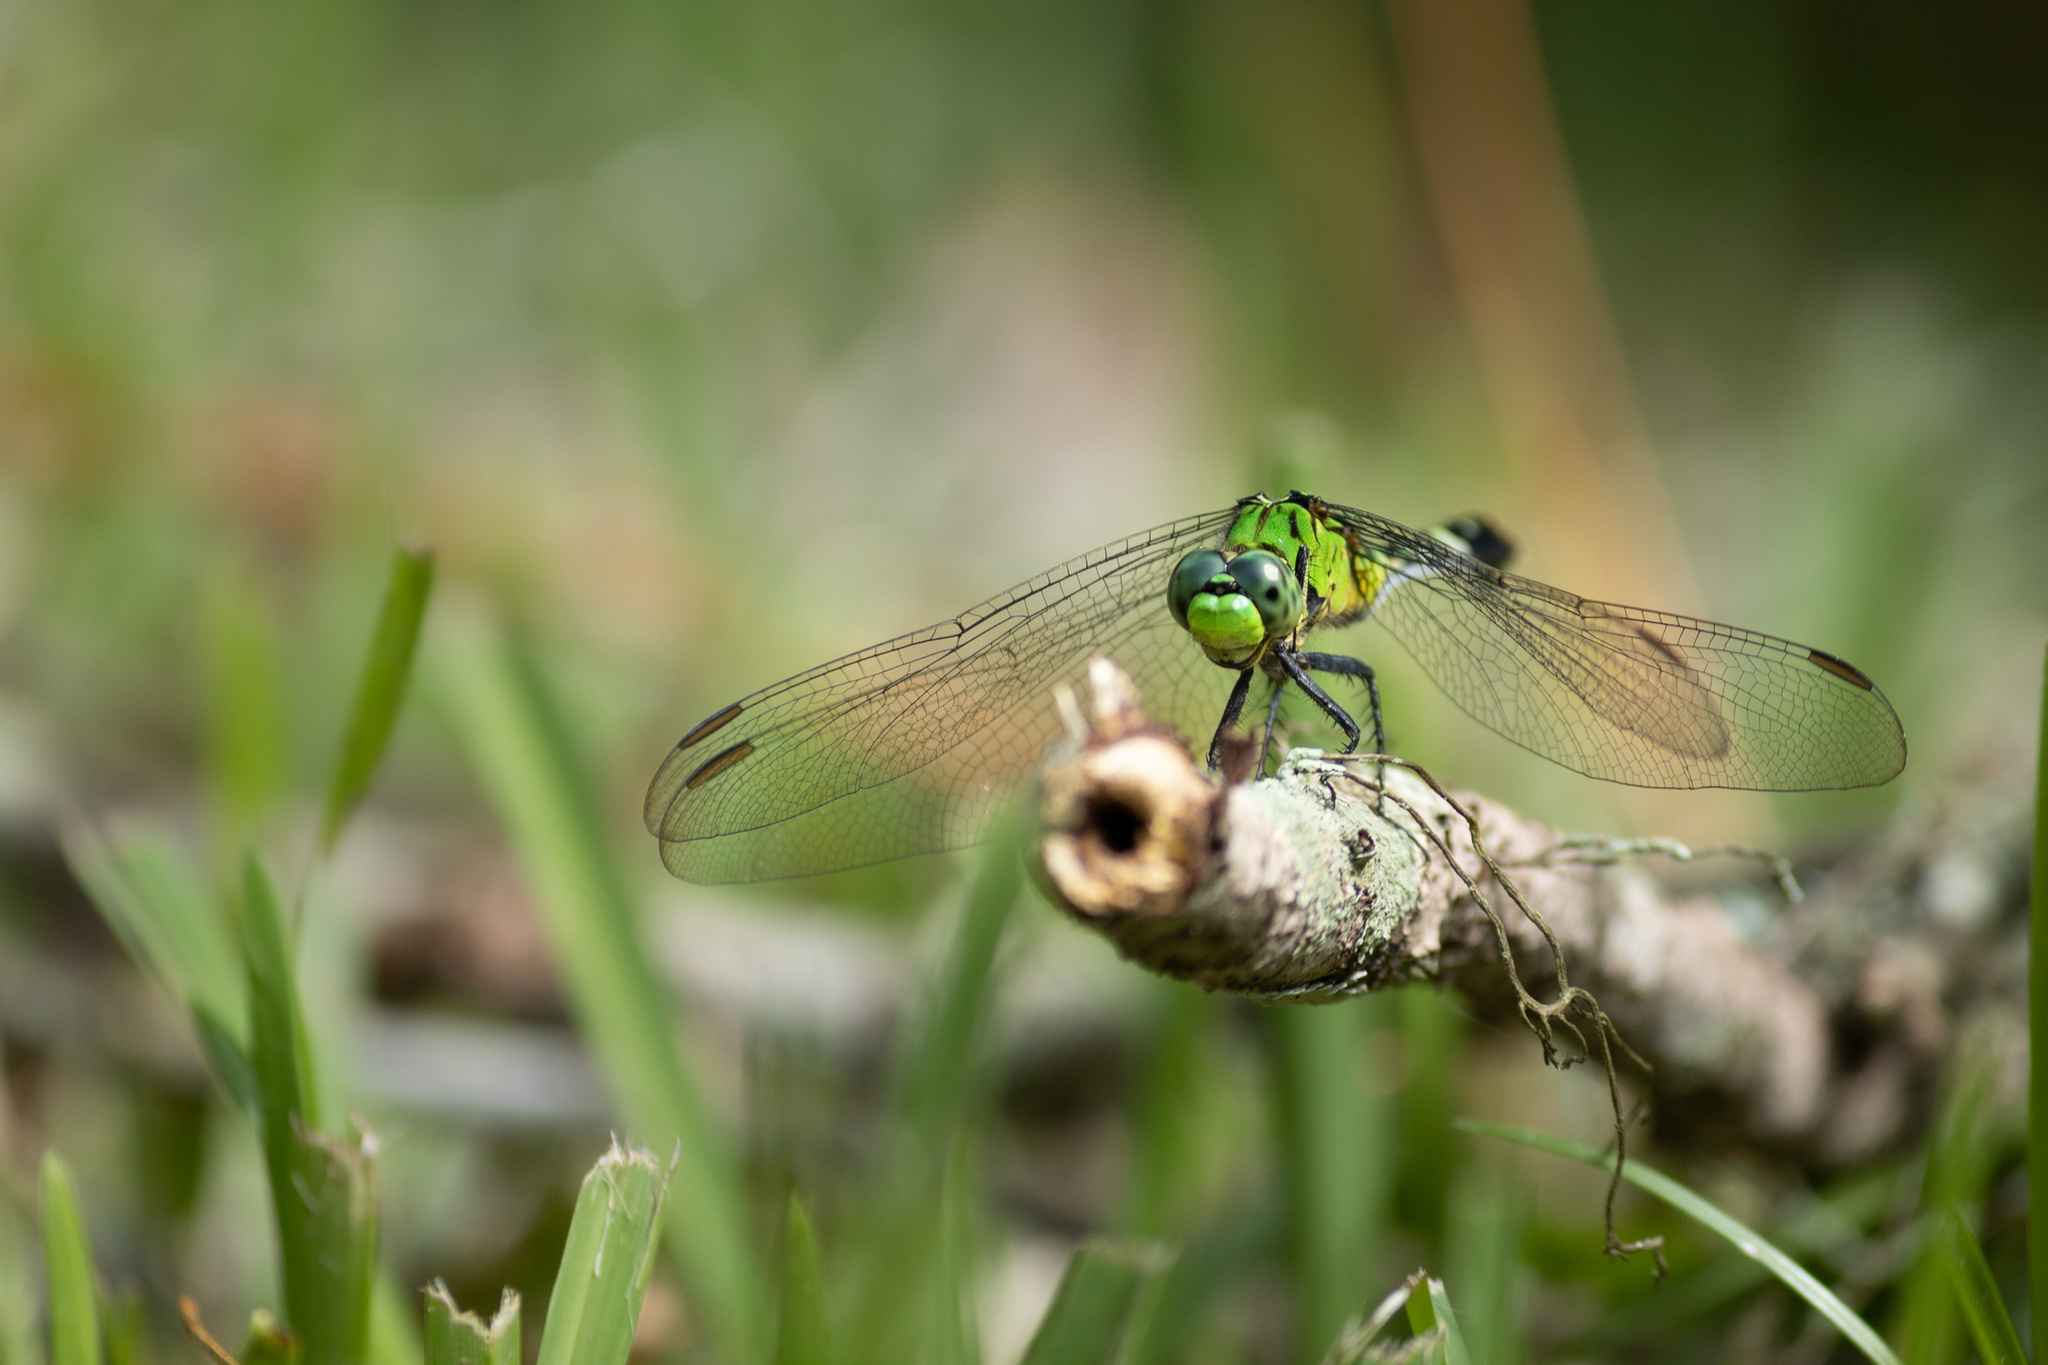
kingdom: Animalia
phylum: Arthropoda
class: Insecta
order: Odonata
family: Libellulidae
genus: Erythemis
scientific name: Erythemis simplicicollis
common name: Eastern pondhawk
